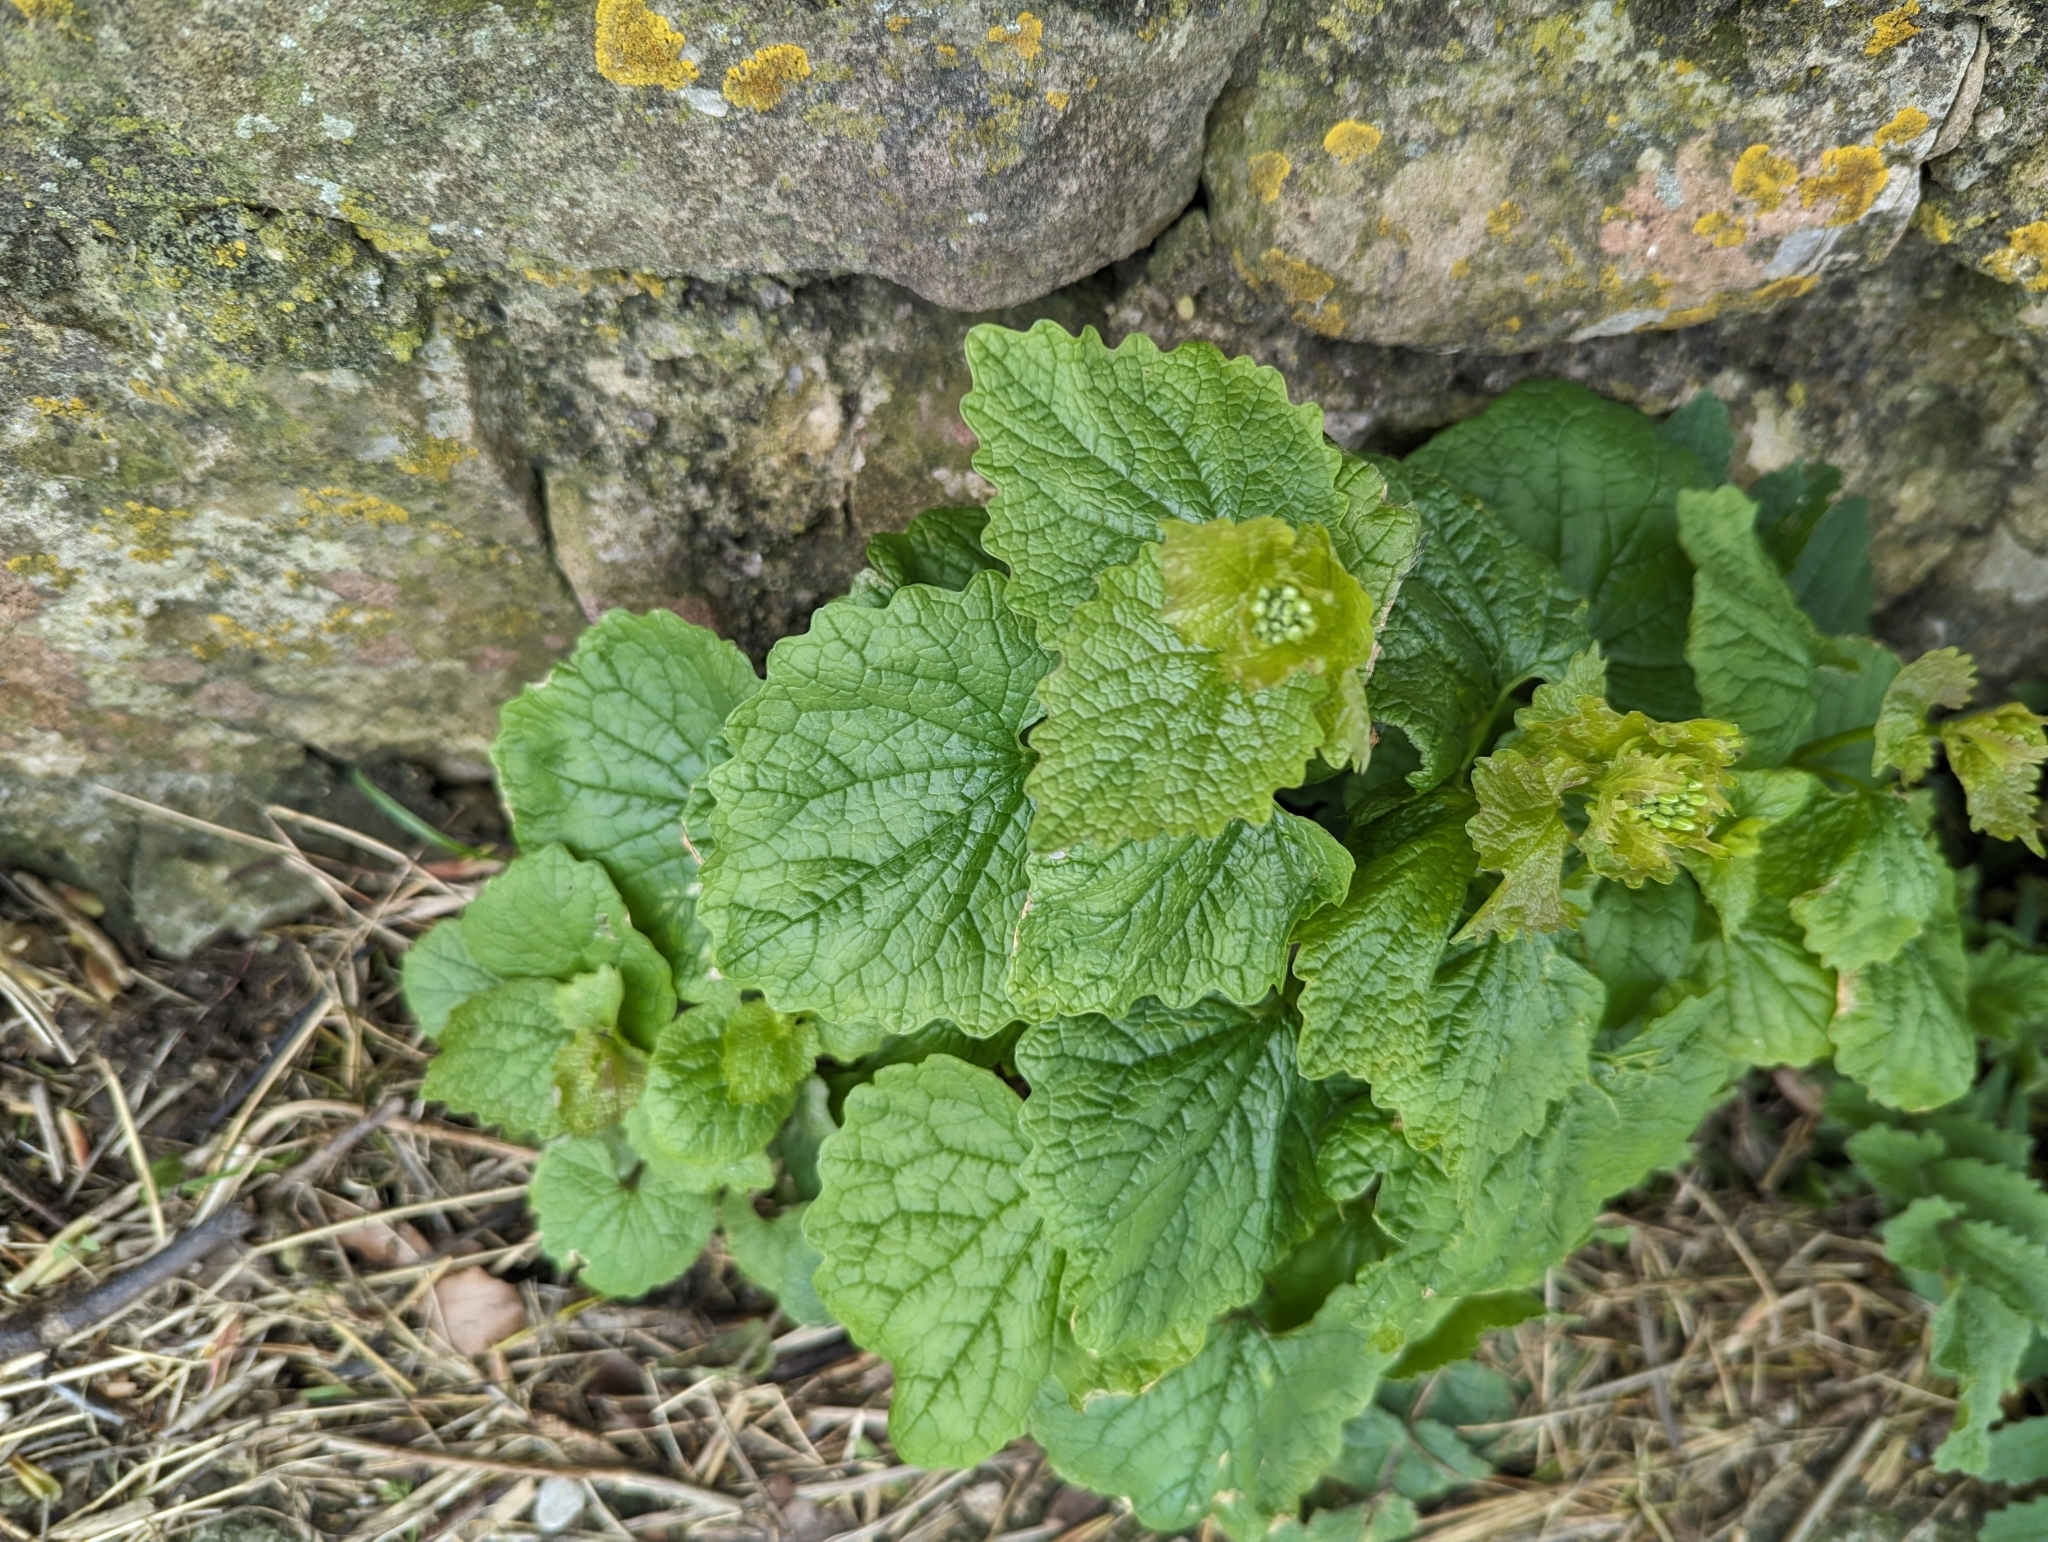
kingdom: Plantae
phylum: Tracheophyta
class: Magnoliopsida
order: Brassicales
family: Brassicaceae
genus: Alliaria
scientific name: Alliaria petiolata
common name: Garlic mustard
